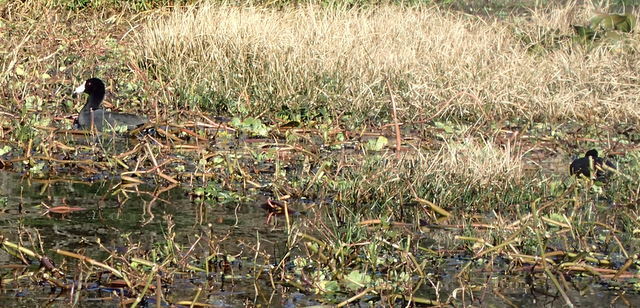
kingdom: Animalia
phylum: Chordata
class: Aves
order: Gruiformes
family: Rallidae
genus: Fulica
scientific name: Fulica americana
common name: American coot
